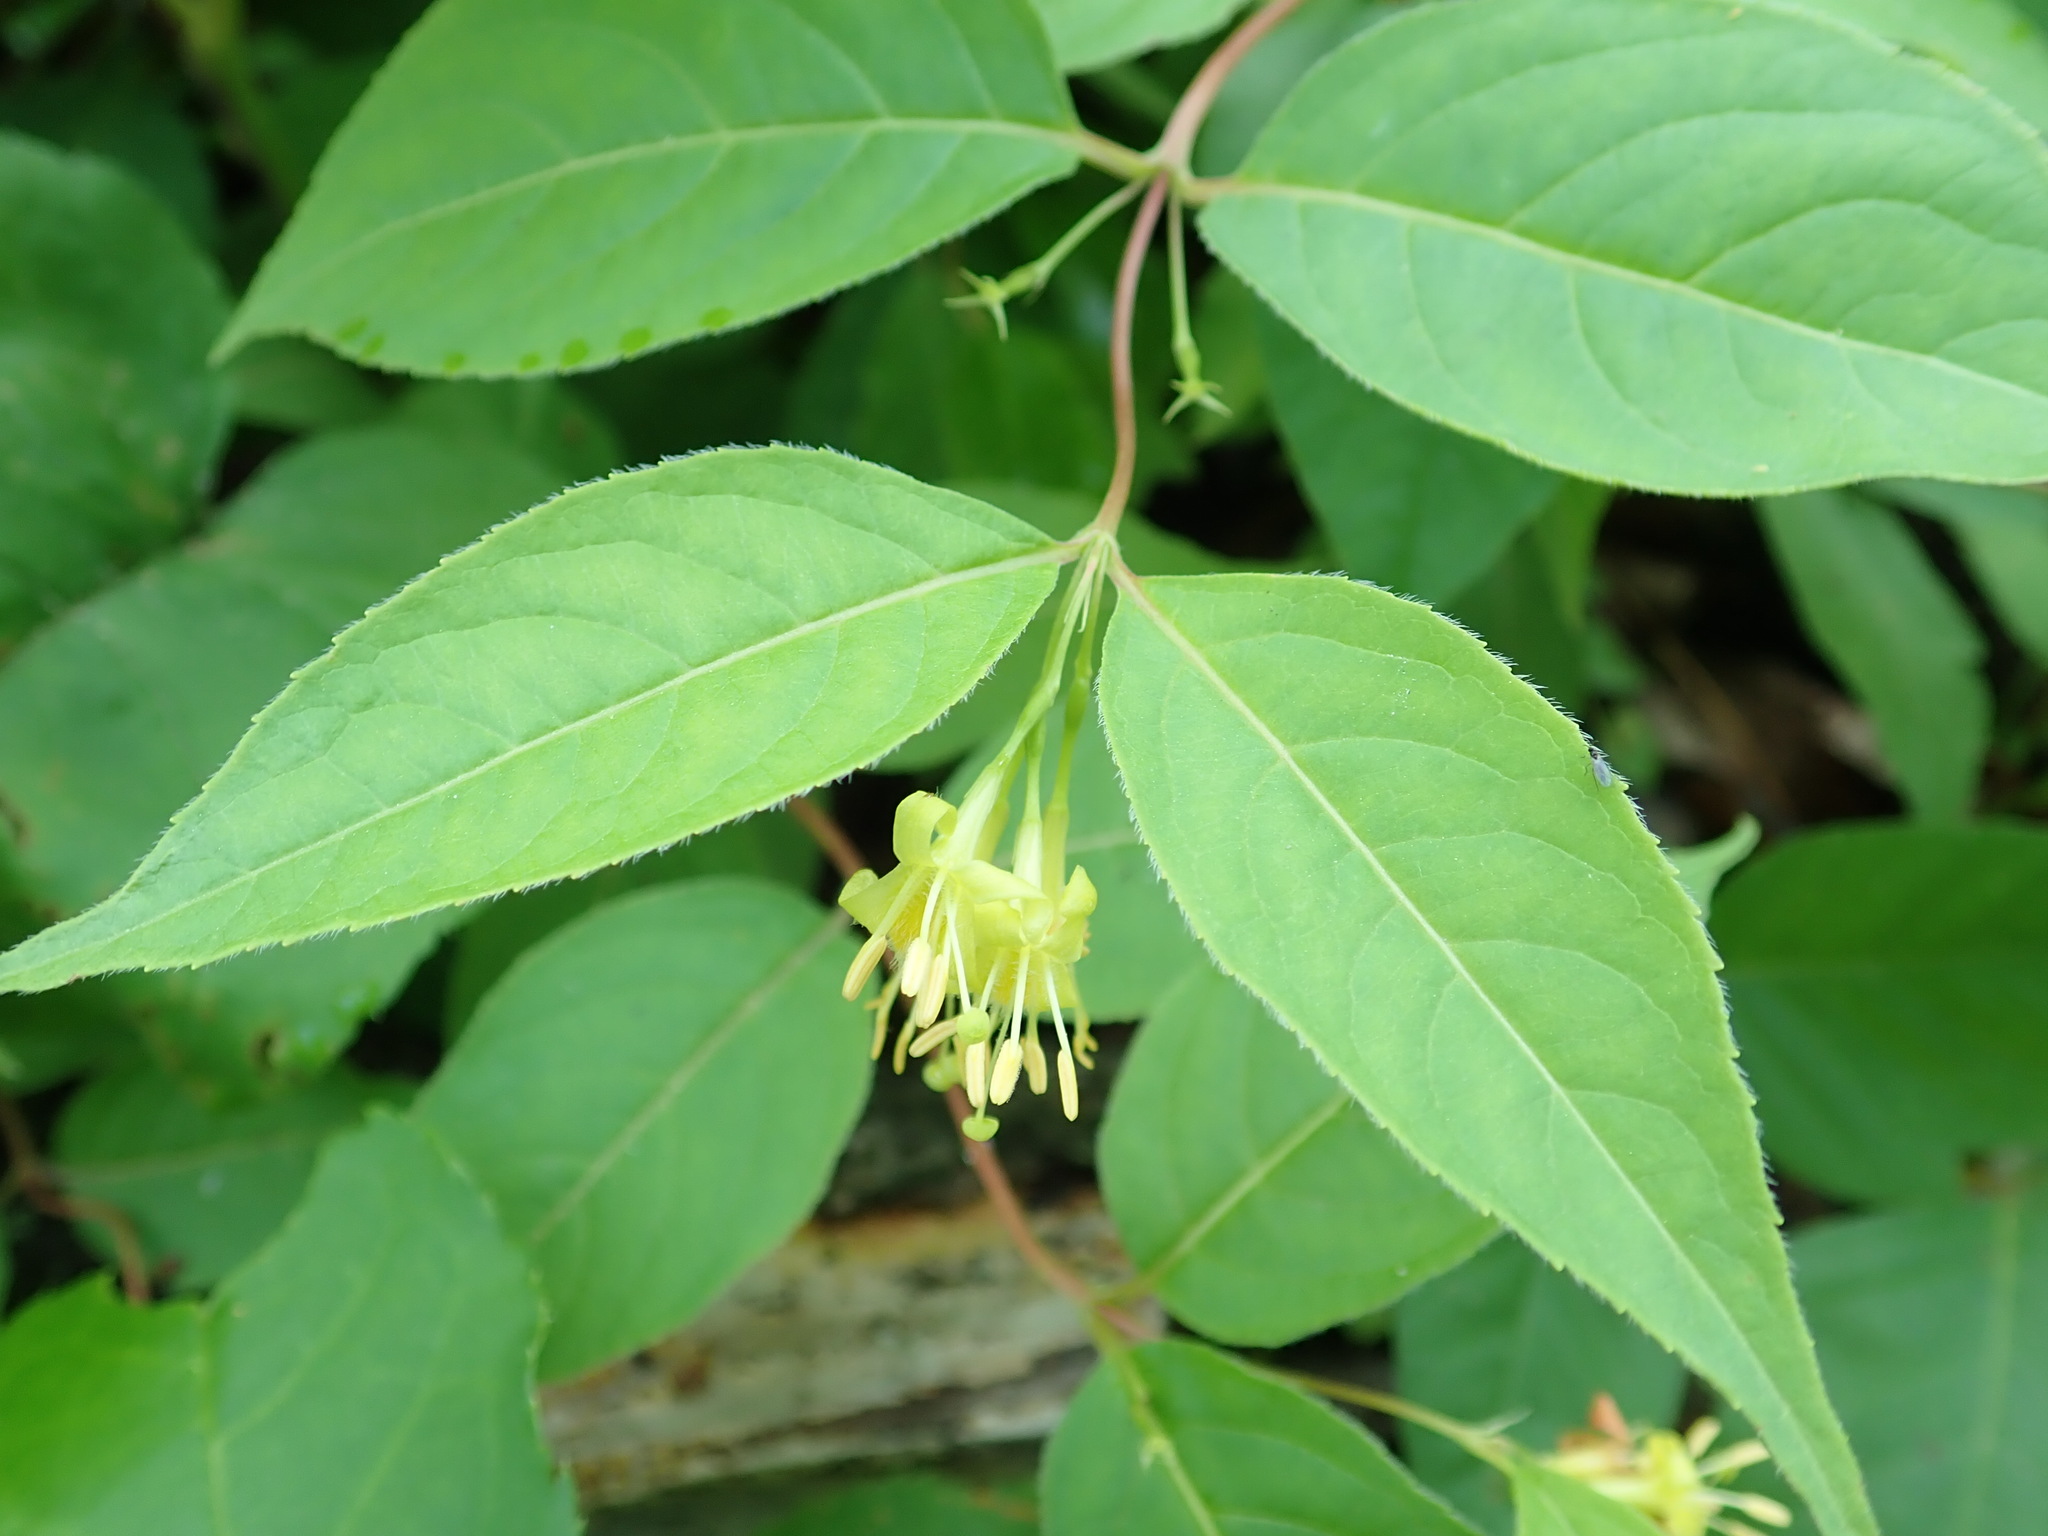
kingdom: Plantae
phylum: Tracheophyta
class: Magnoliopsida
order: Dipsacales
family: Caprifoliaceae
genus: Diervilla
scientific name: Diervilla lonicera
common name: Bush-honeysuckle
